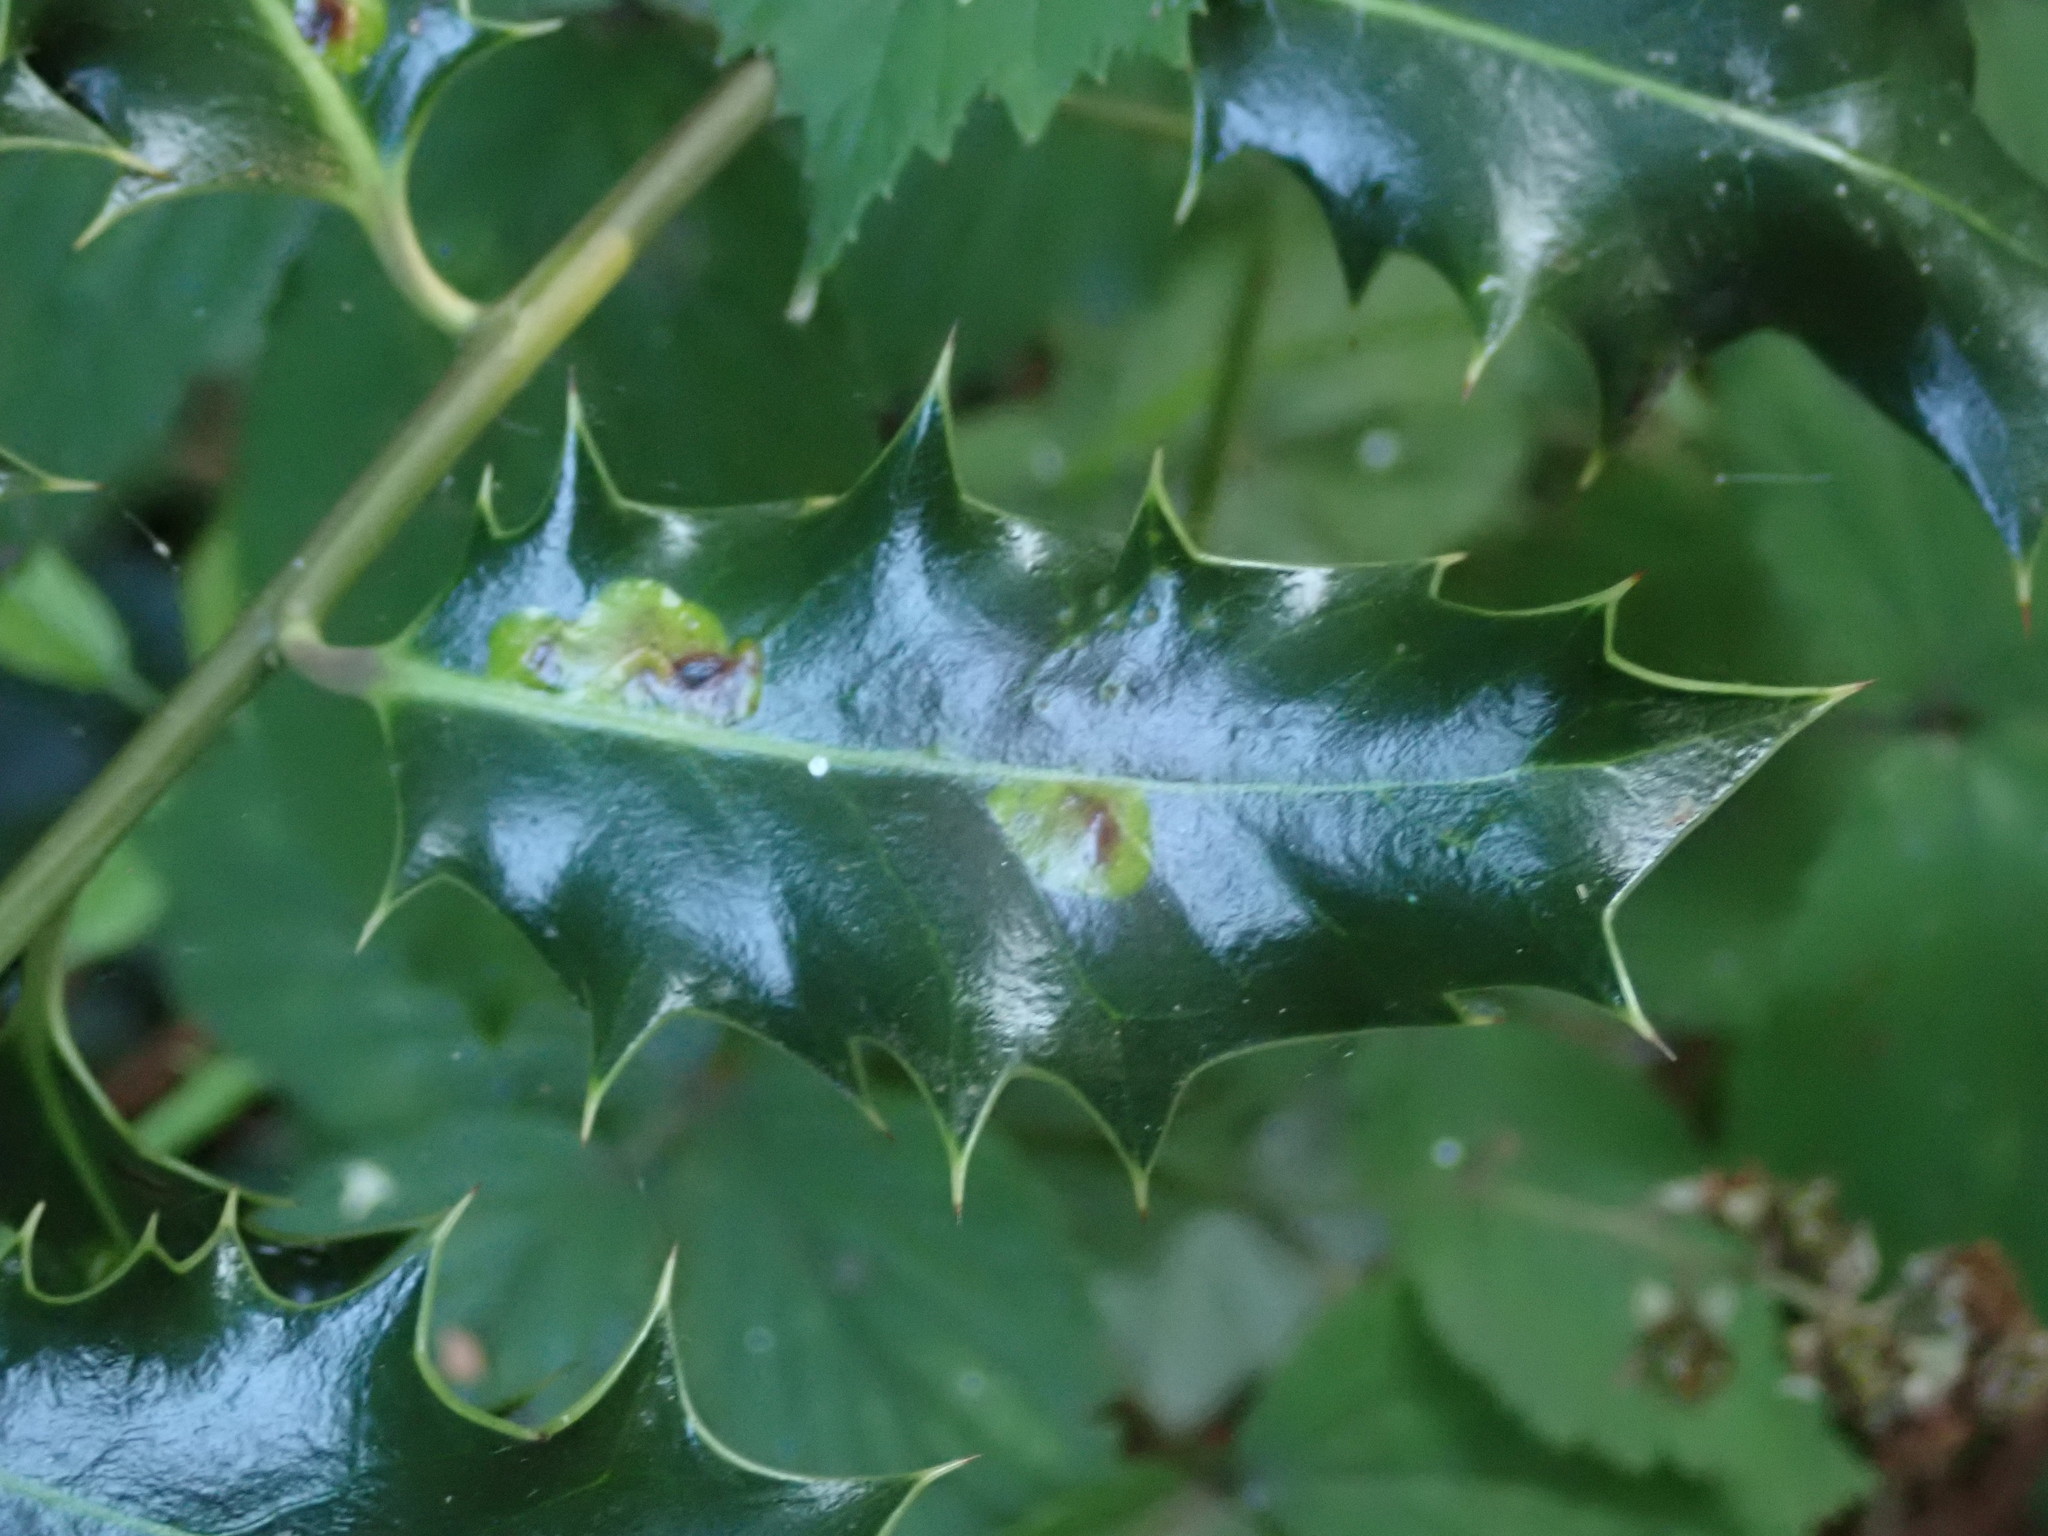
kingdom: Animalia
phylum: Arthropoda
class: Insecta
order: Diptera
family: Agromyzidae
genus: Phytomyza
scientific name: Phytomyza ilicis
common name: Holly leafminer
